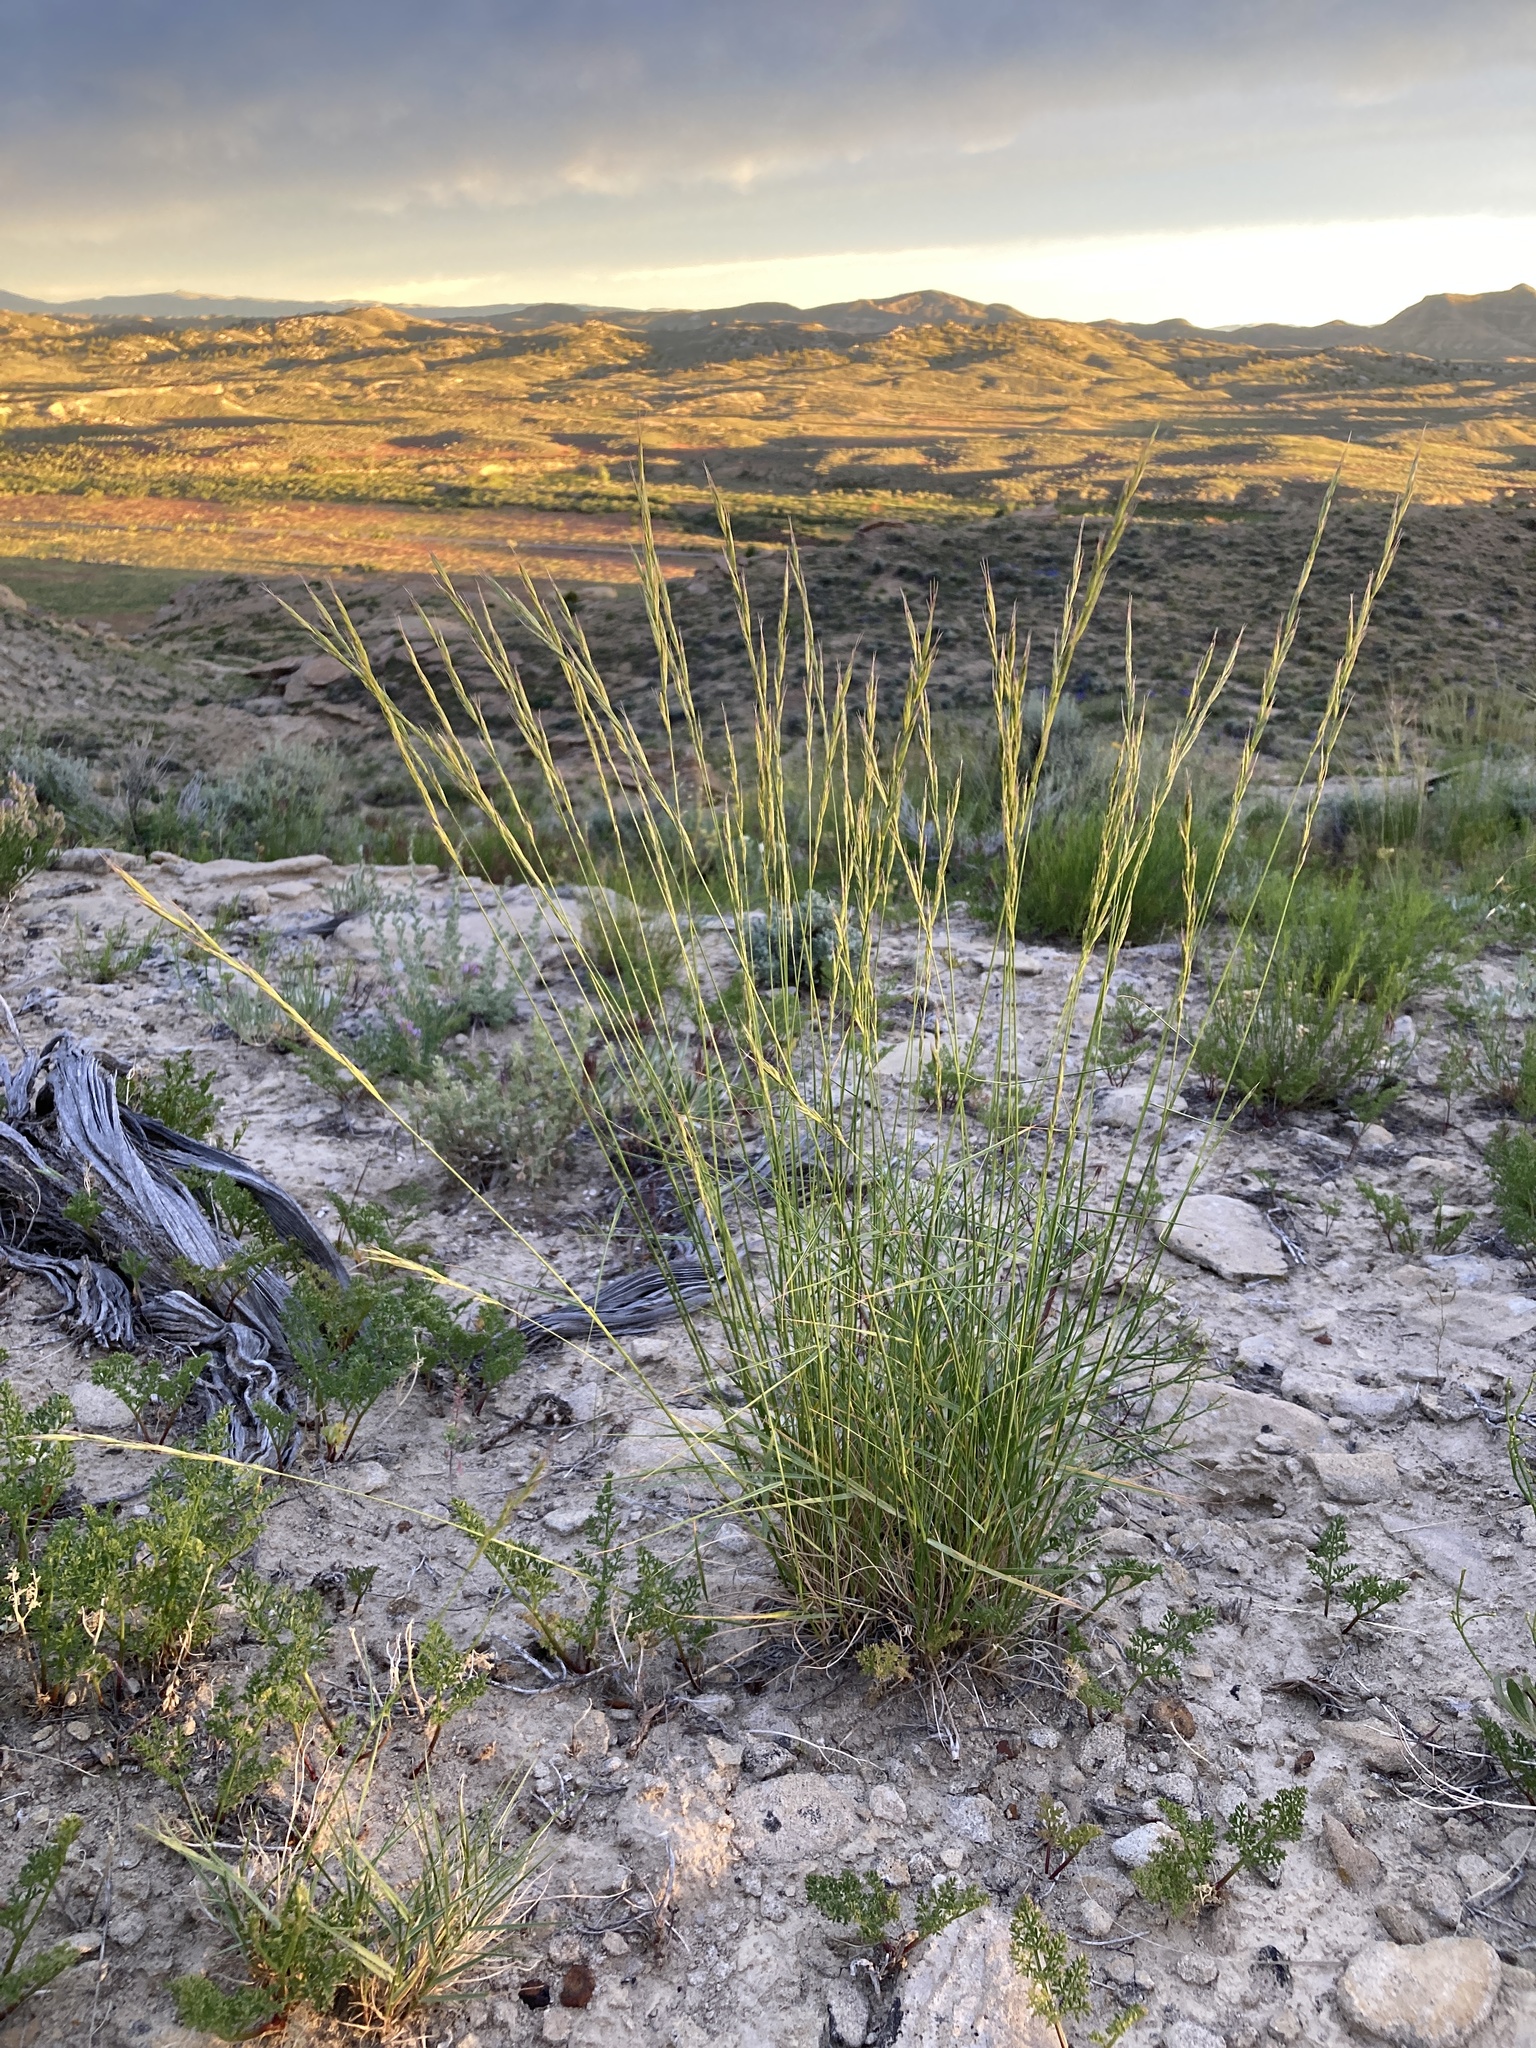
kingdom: Plantae
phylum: Tracheophyta
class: Liliopsida
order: Poales
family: Poaceae
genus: Pseudoroegneria
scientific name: Pseudoroegneria spicata
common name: Bluebunch wheatgrass
